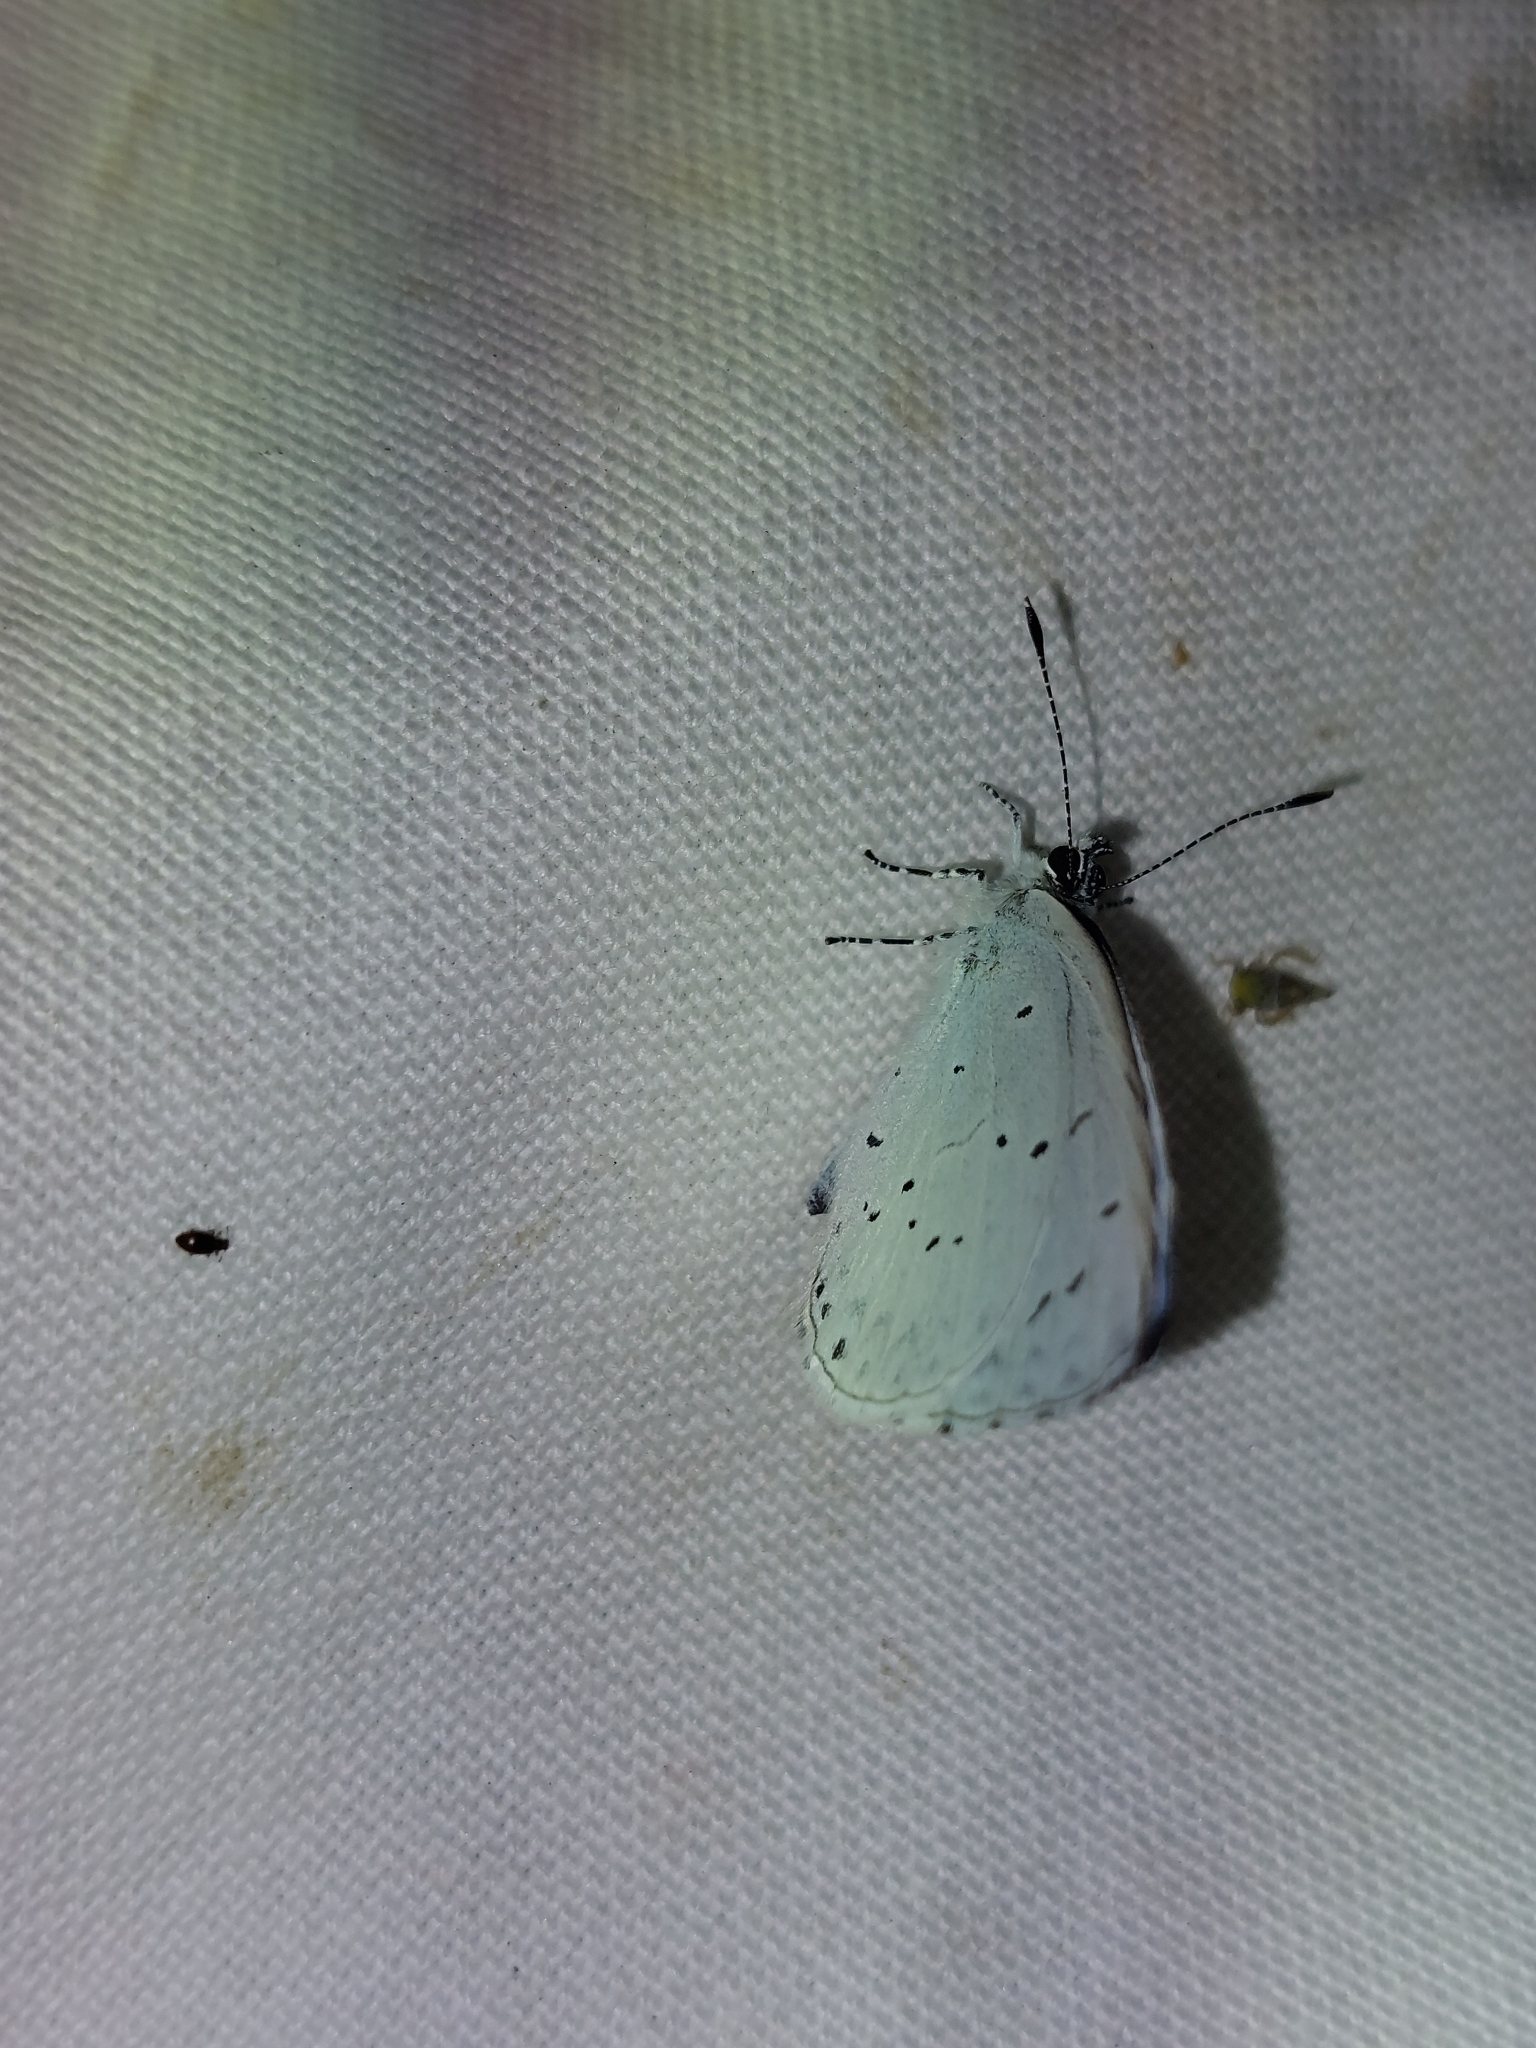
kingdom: Animalia
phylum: Arthropoda
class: Insecta
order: Lepidoptera
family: Lycaenidae
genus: Celastrina
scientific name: Celastrina argiolus
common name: Holly blue
